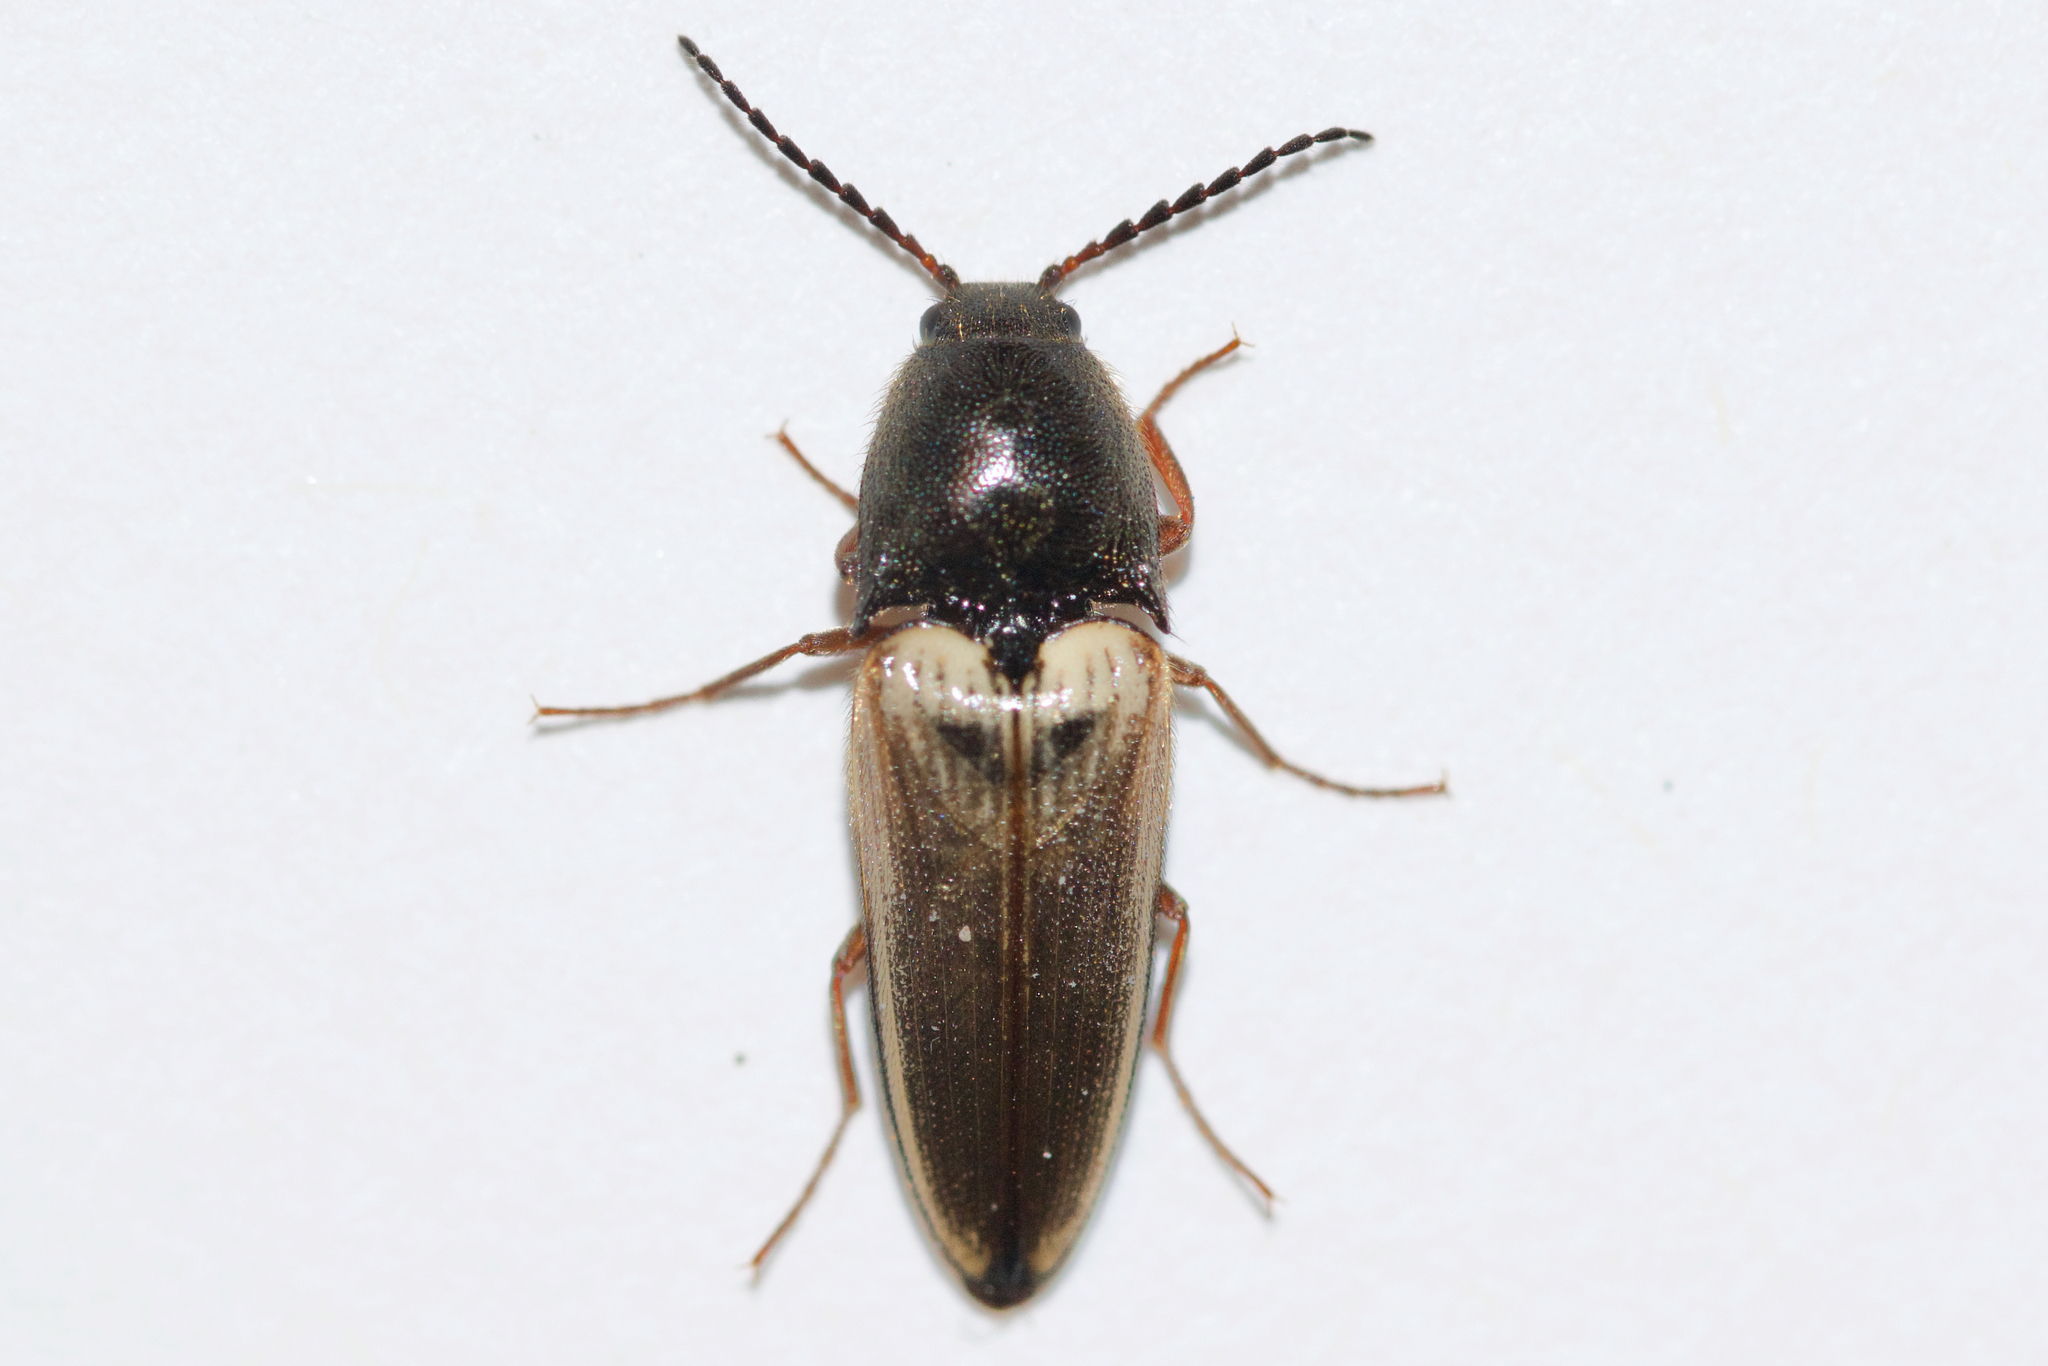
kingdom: Animalia
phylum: Arthropoda
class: Insecta
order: Coleoptera
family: Elateridae
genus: Ampedus
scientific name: Ampedus nigricollis
